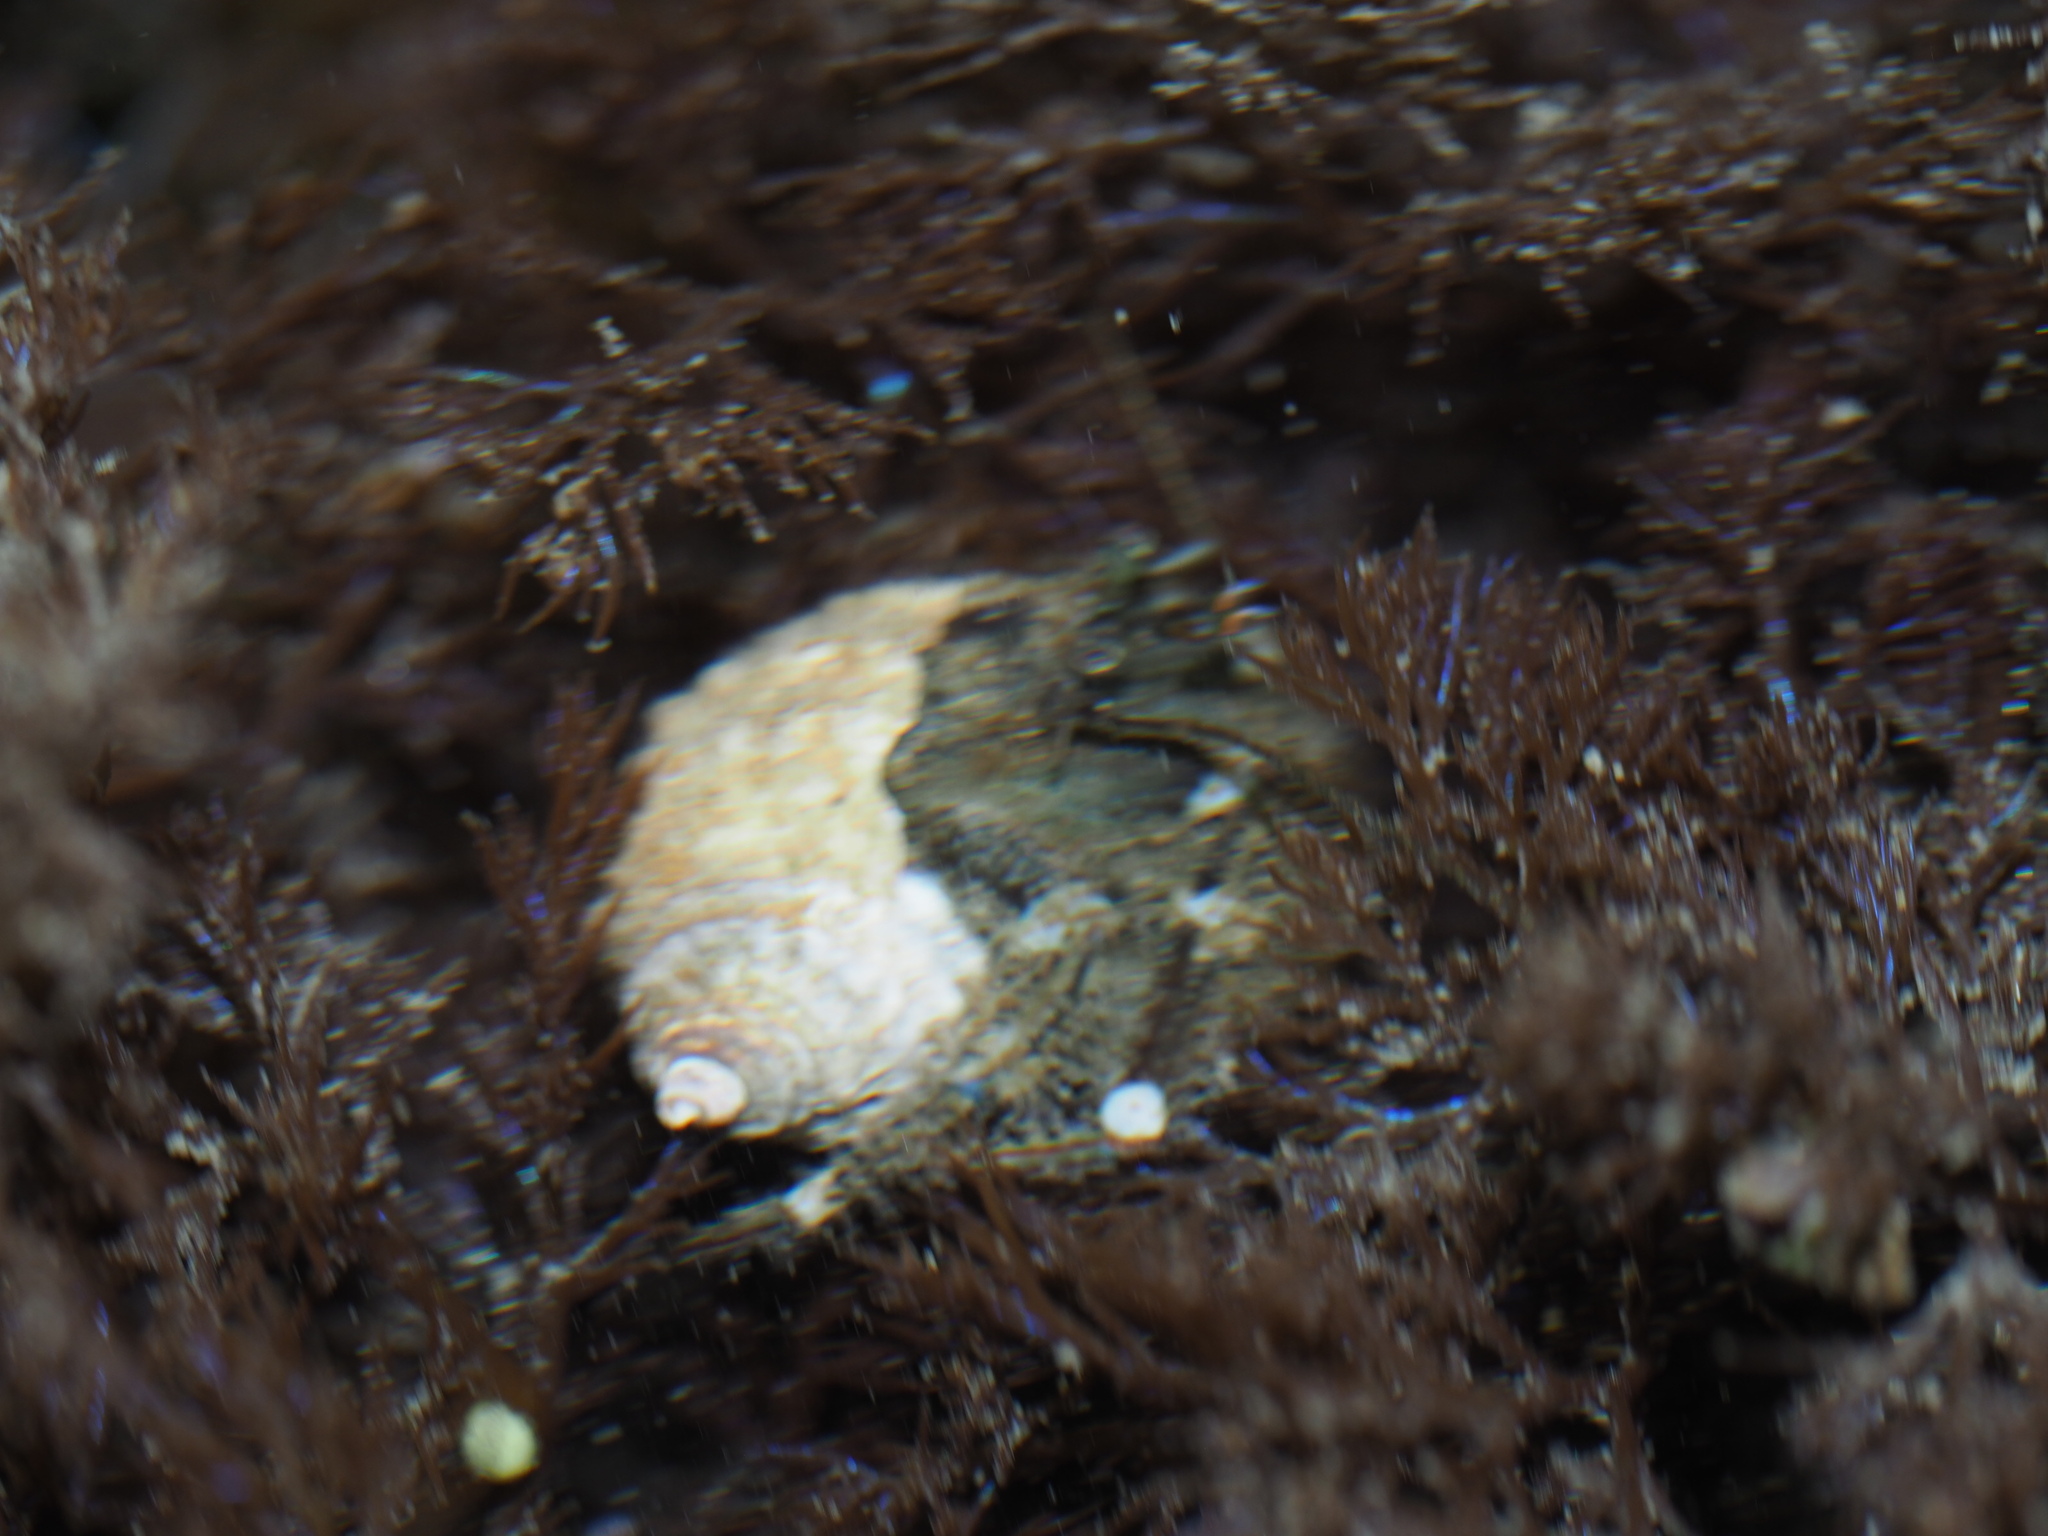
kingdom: Animalia
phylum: Arthropoda
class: Malacostraca
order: Decapoda
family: Paguridae
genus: Pagurus
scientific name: Pagurus hirsutiusculus
